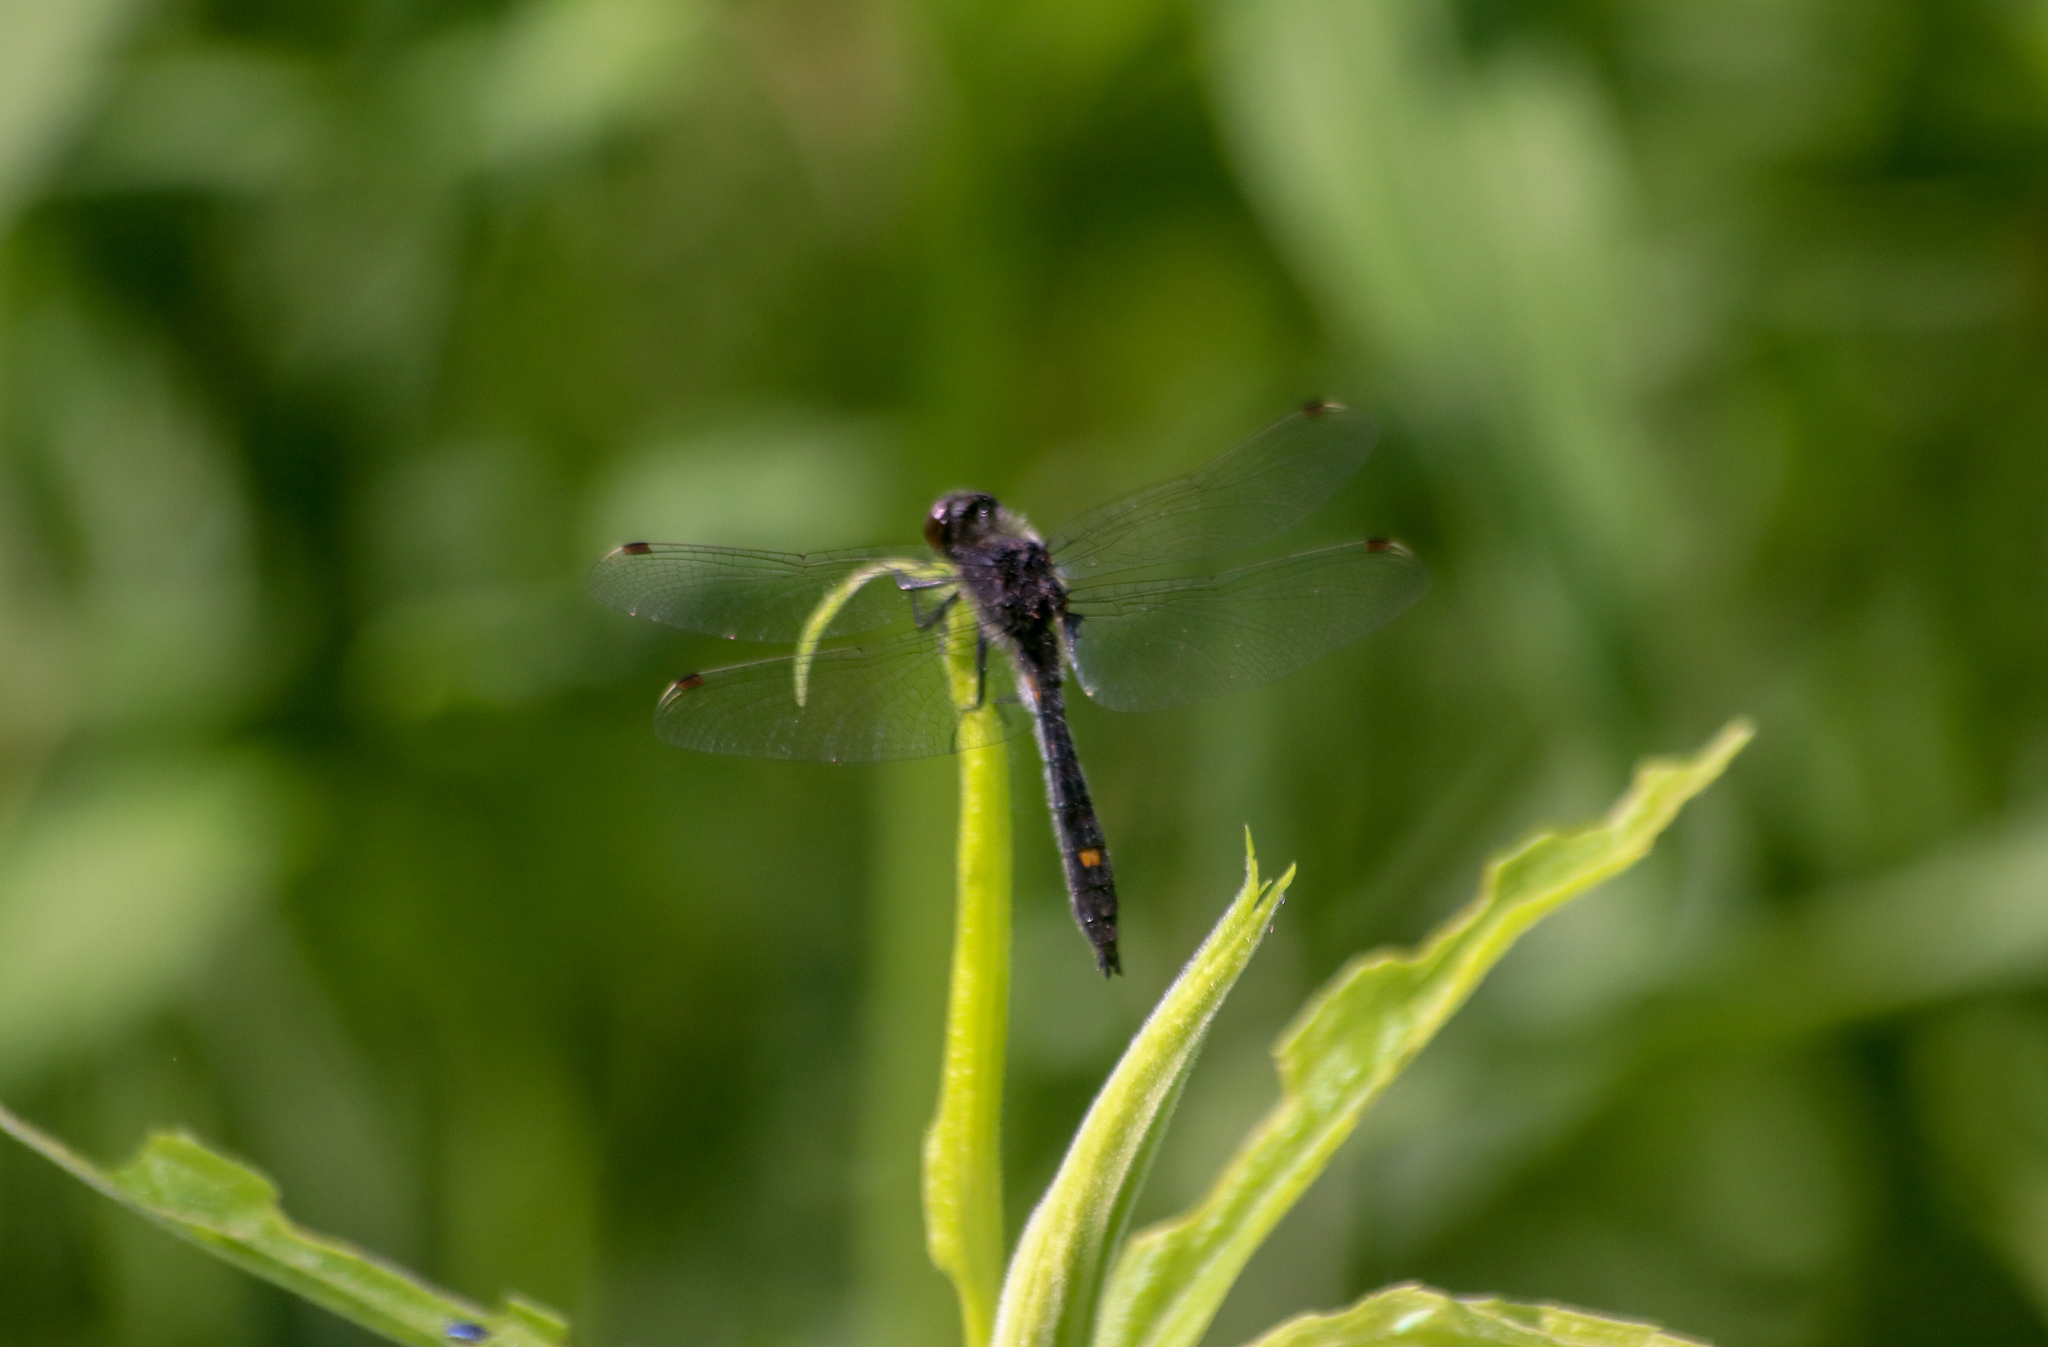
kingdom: Animalia
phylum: Arthropoda
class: Insecta
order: Odonata
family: Libellulidae
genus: Leucorrhinia
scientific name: Leucorrhinia intacta
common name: Dot-tailed whiteface
